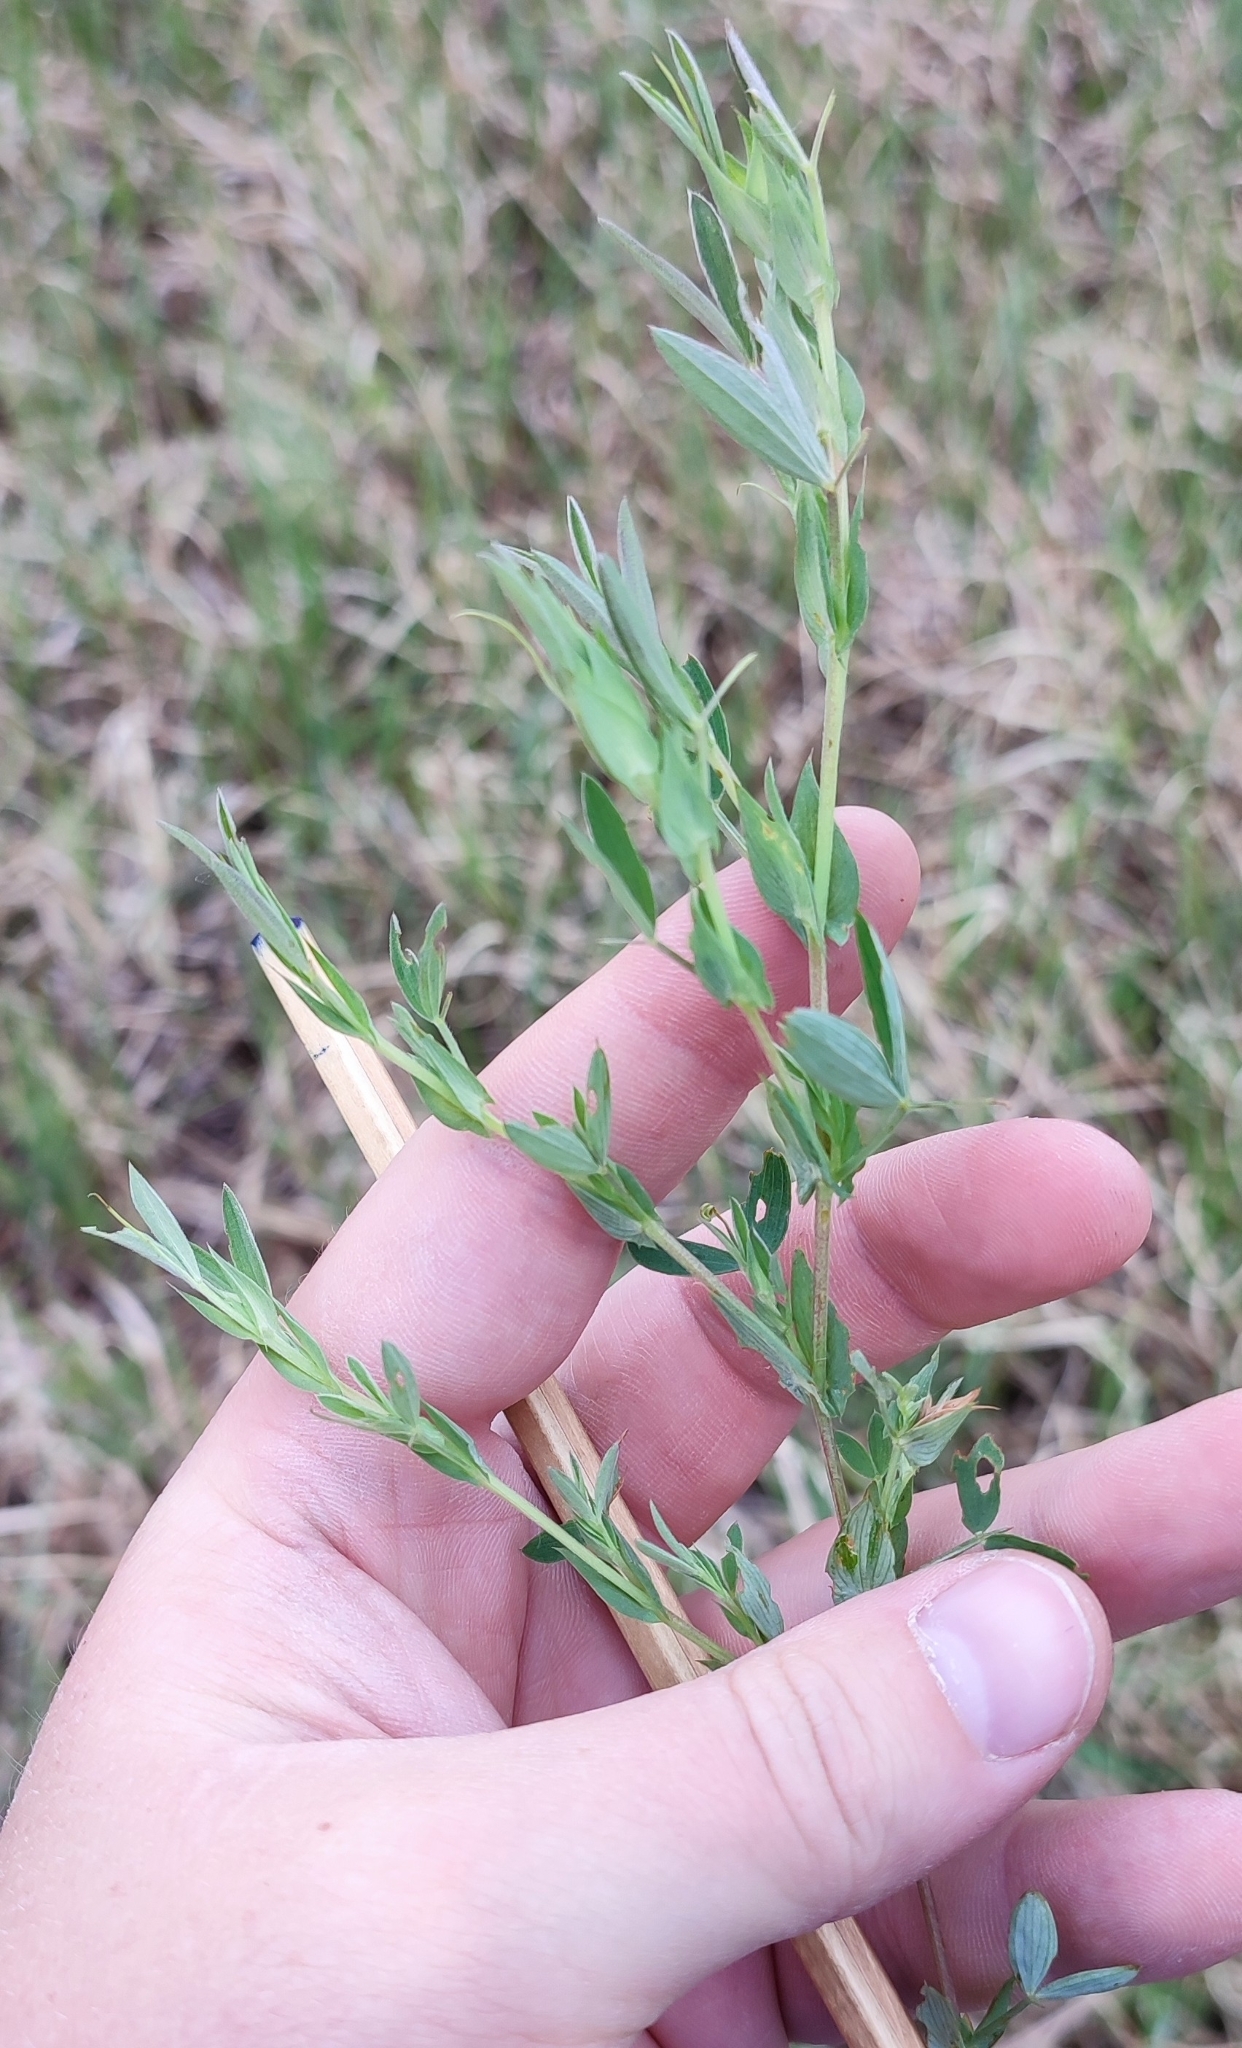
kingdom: Plantae
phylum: Tracheophyta
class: Magnoliopsida
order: Fabales
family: Fabaceae
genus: Lathyrus
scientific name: Lathyrus pratensis
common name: Meadow vetchling
